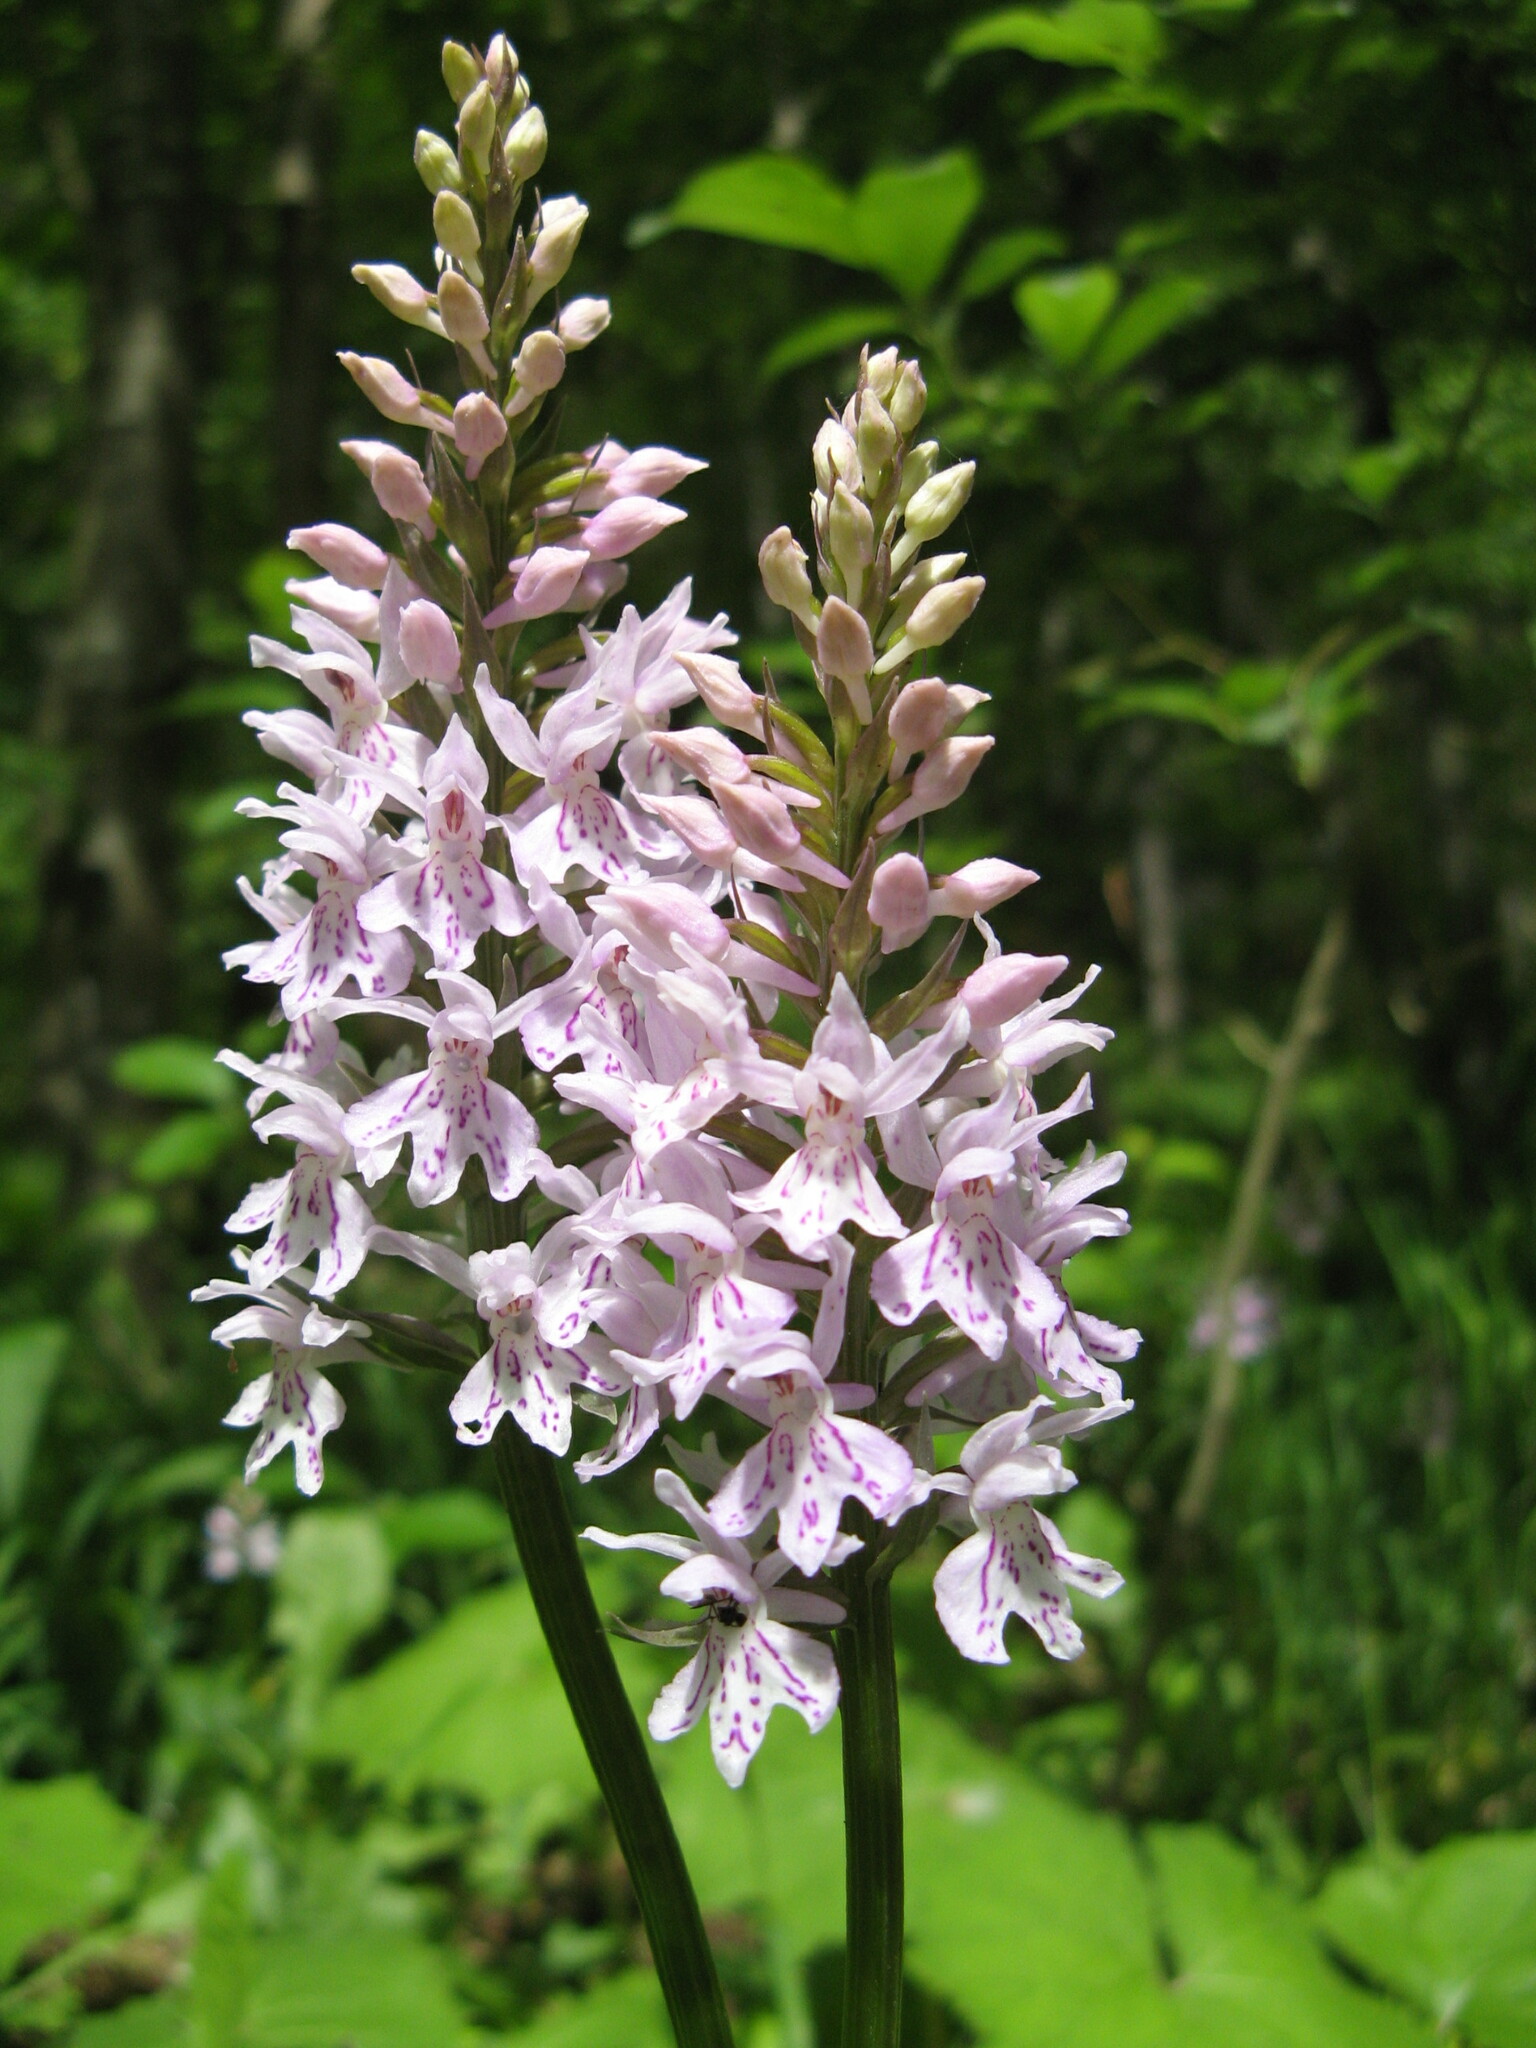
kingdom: Plantae
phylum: Tracheophyta
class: Liliopsida
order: Asparagales
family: Orchidaceae
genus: Dactylorhiza
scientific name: Dactylorhiza maculata
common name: Heath spotted-orchid
